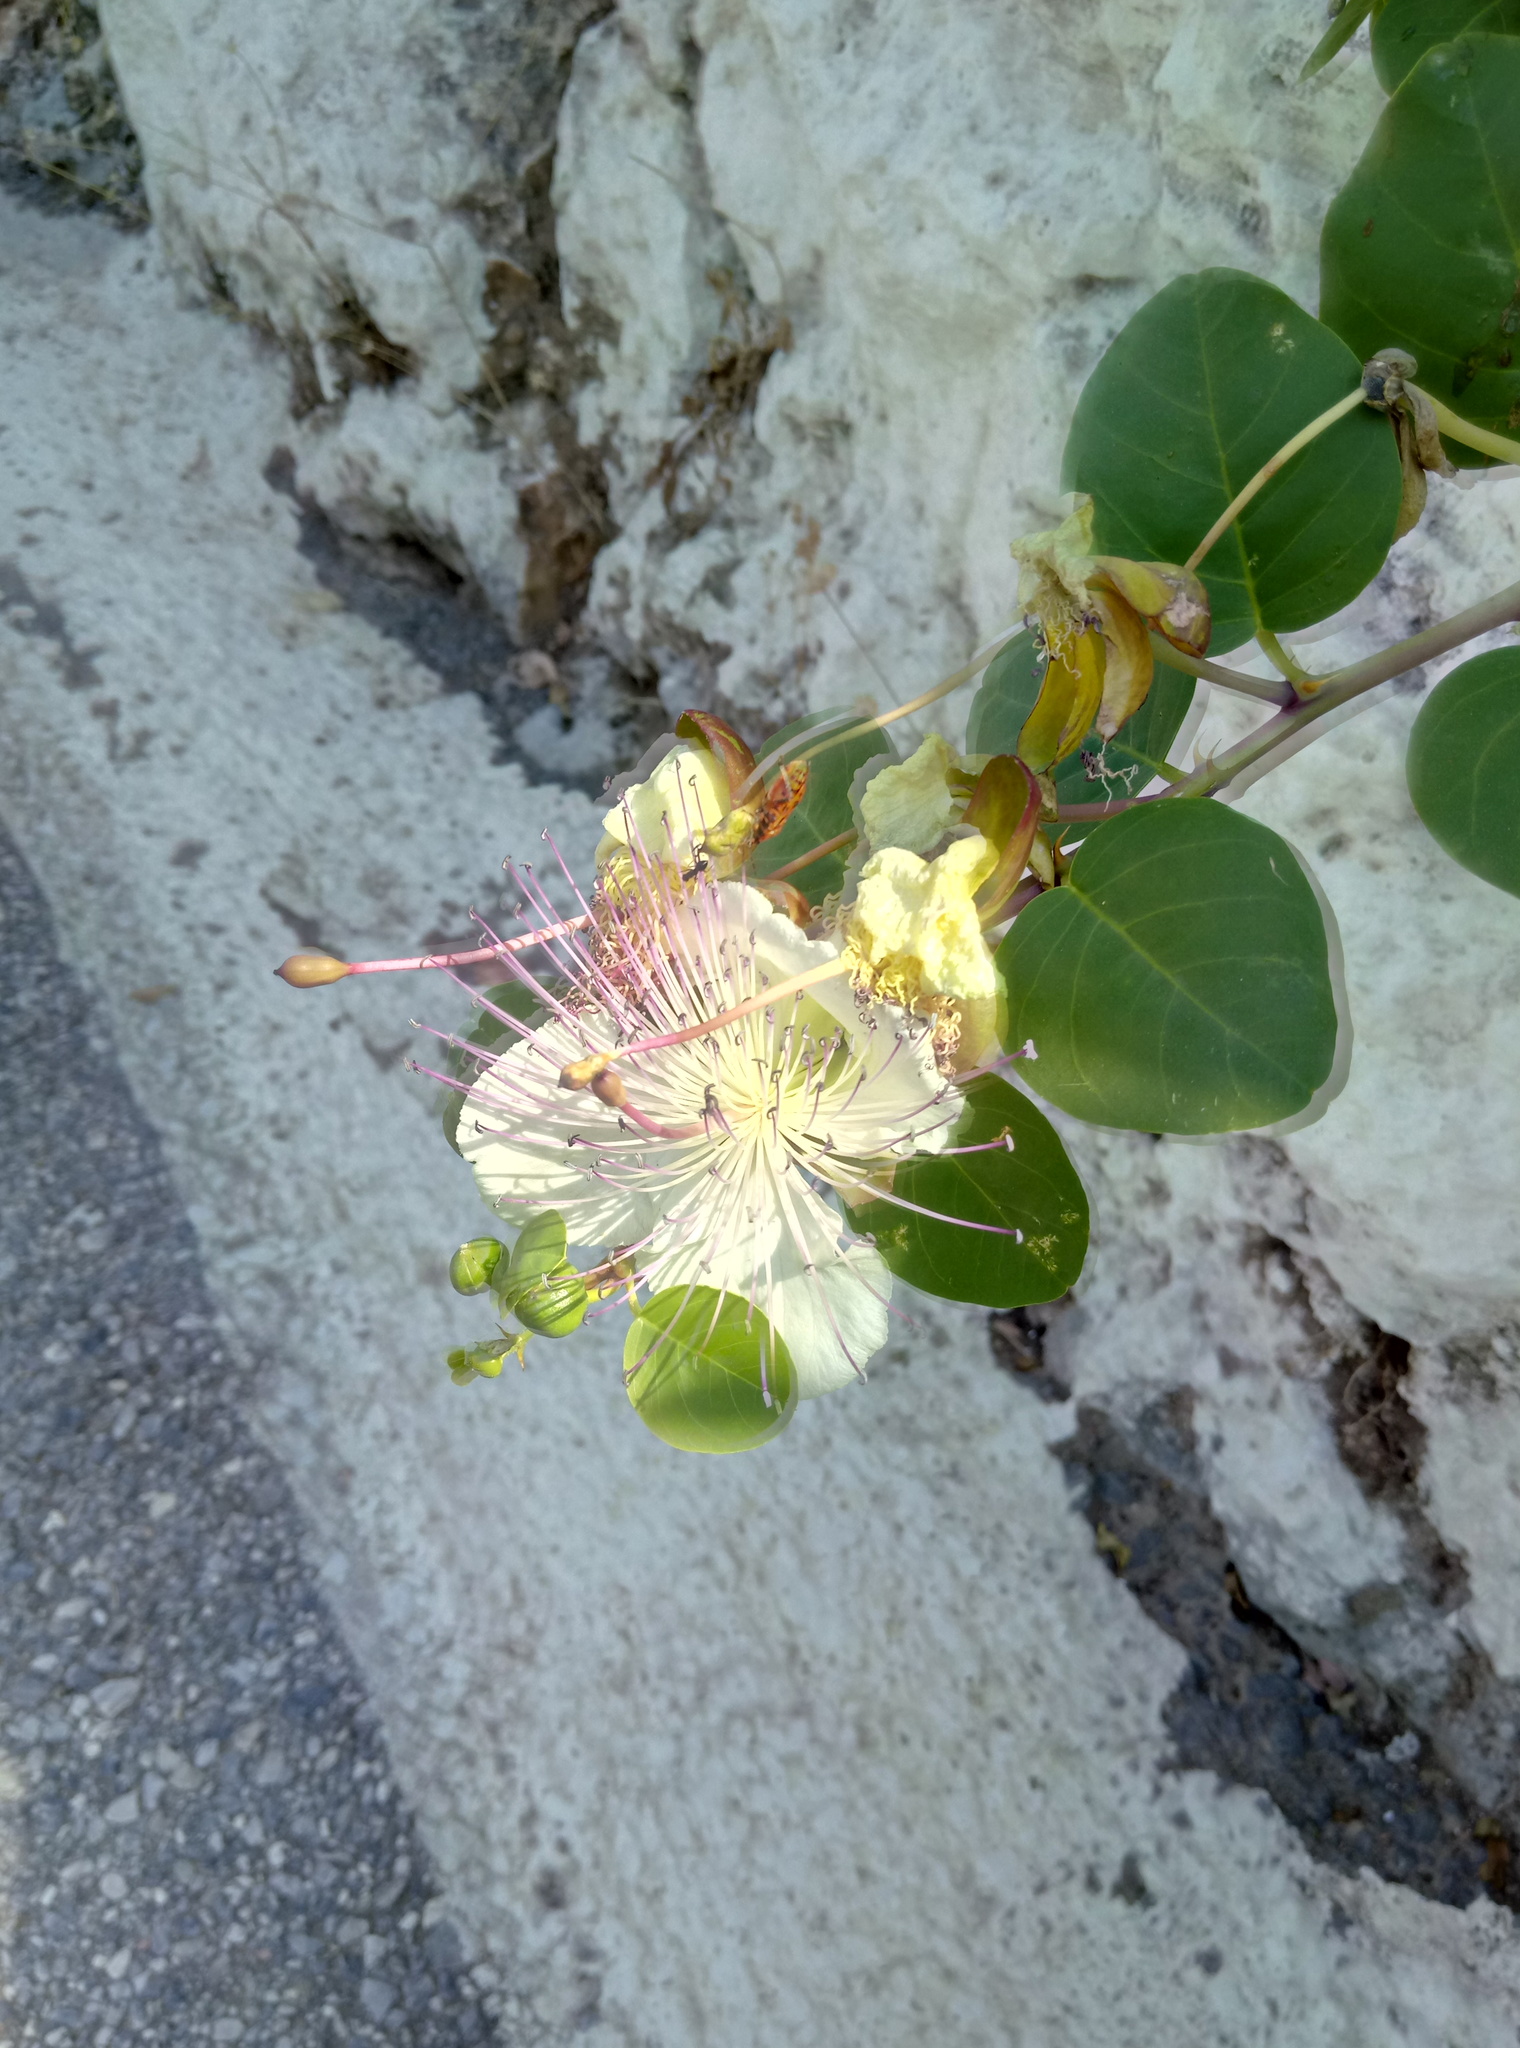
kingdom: Plantae
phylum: Tracheophyta
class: Magnoliopsida
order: Brassicales
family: Capparaceae
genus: Capparis
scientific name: Capparis spinosa
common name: Caper
